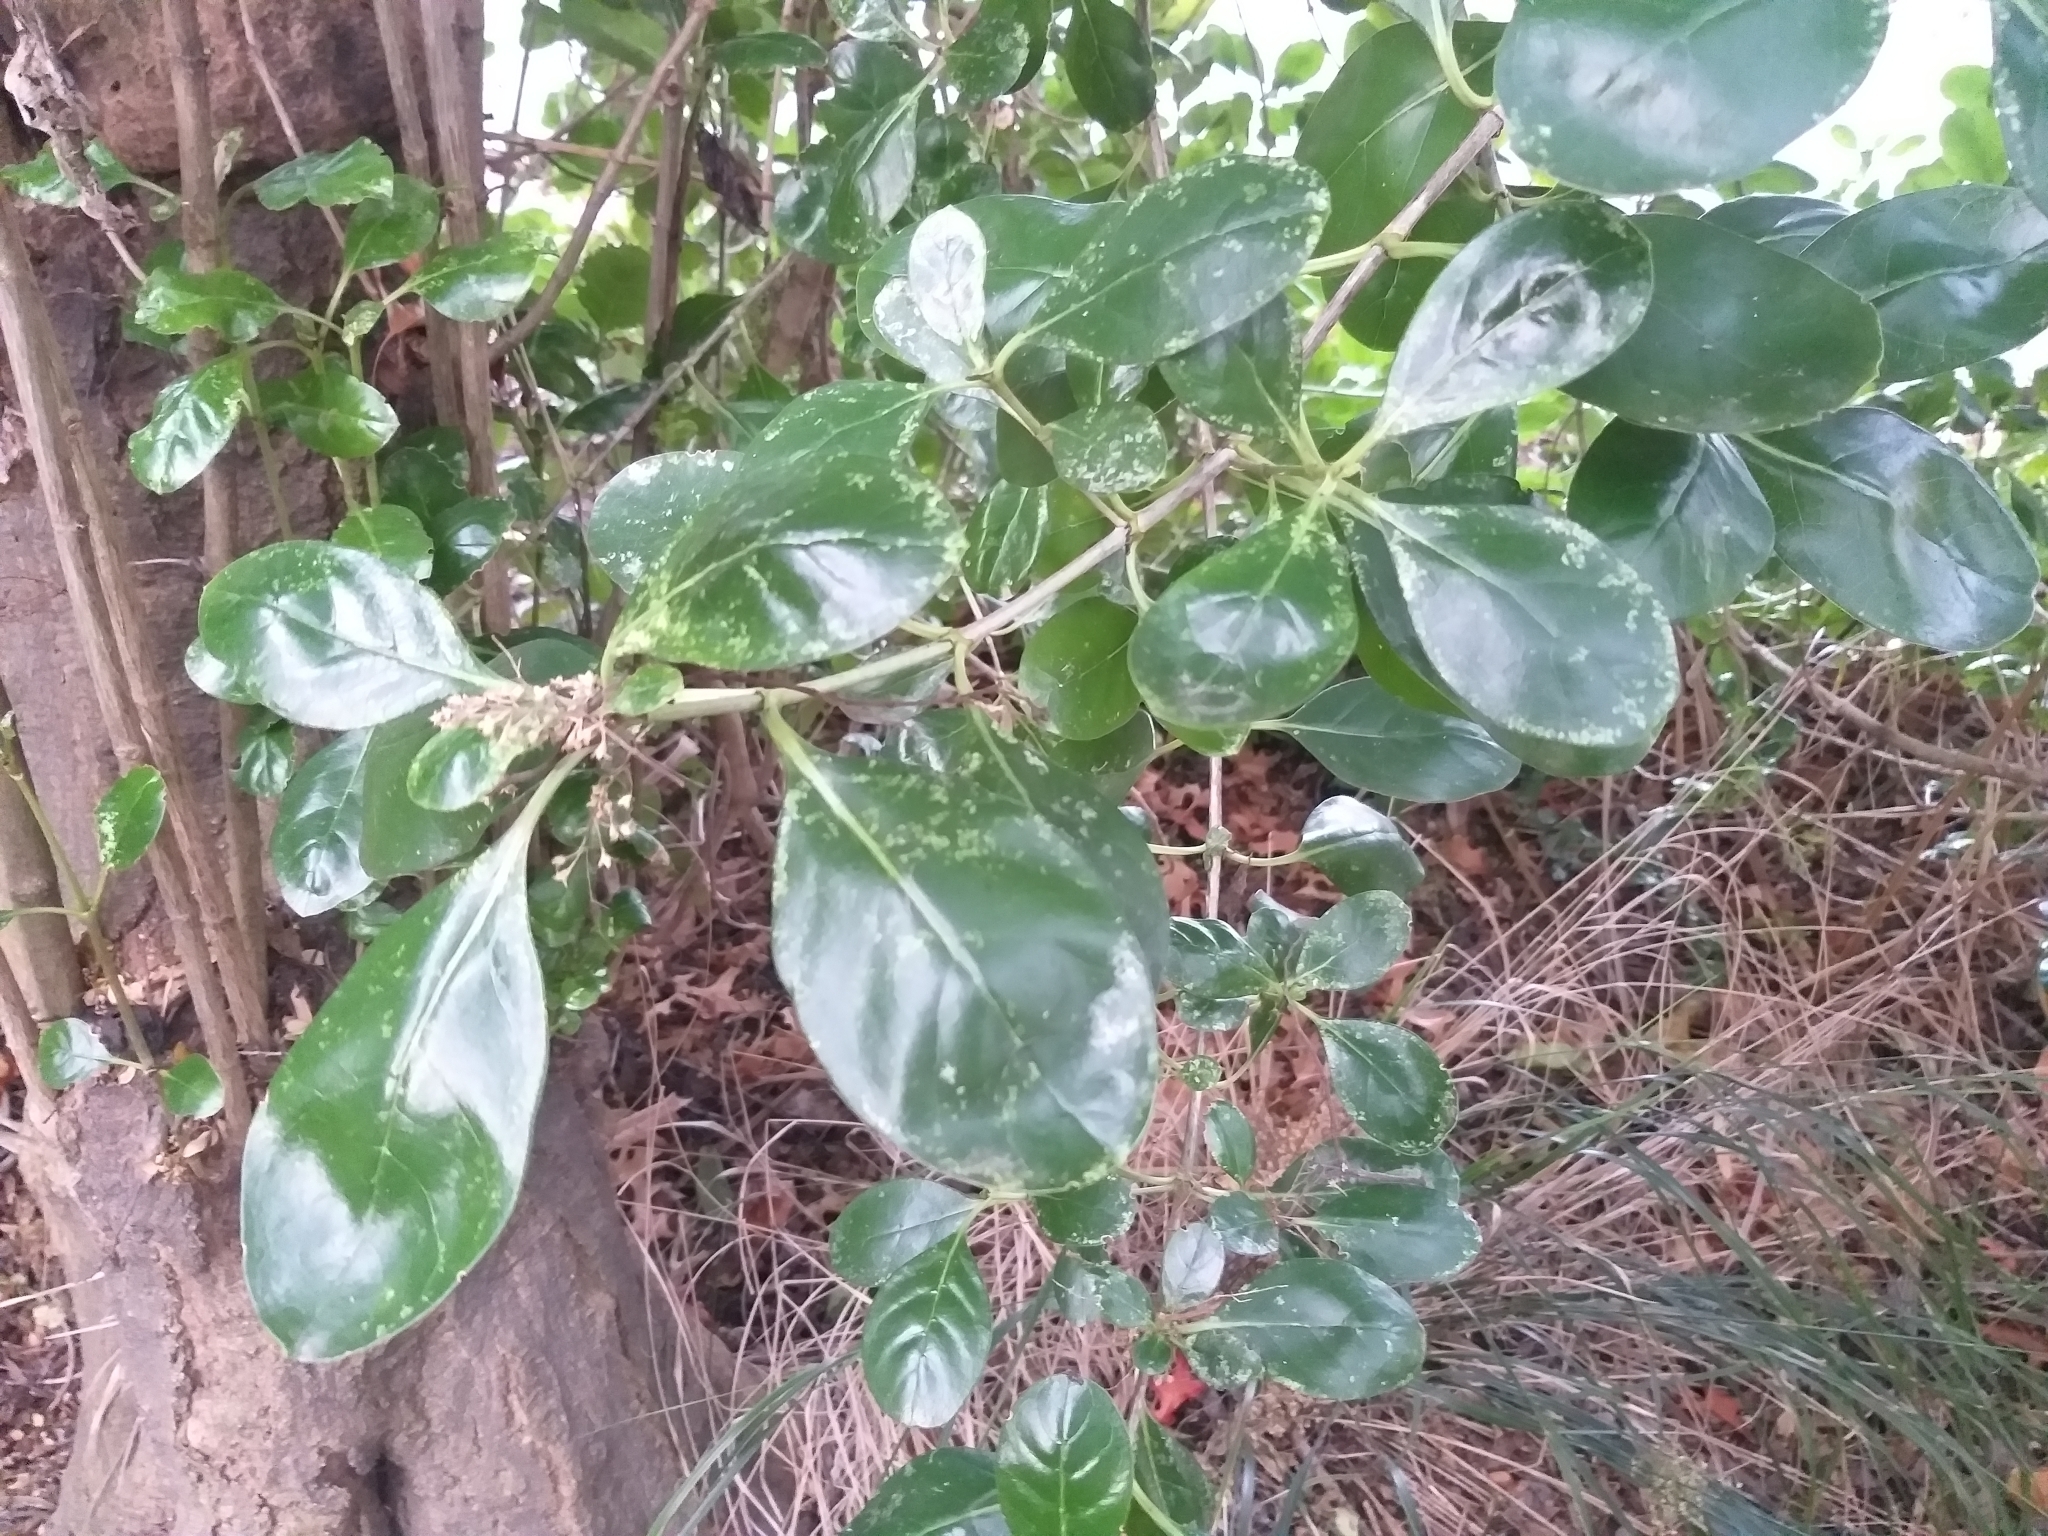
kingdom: Plantae
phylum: Tracheophyta
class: Magnoliopsida
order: Gentianales
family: Rubiaceae
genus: Coprosma
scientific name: Coprosma repens
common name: Tree bedstraw
